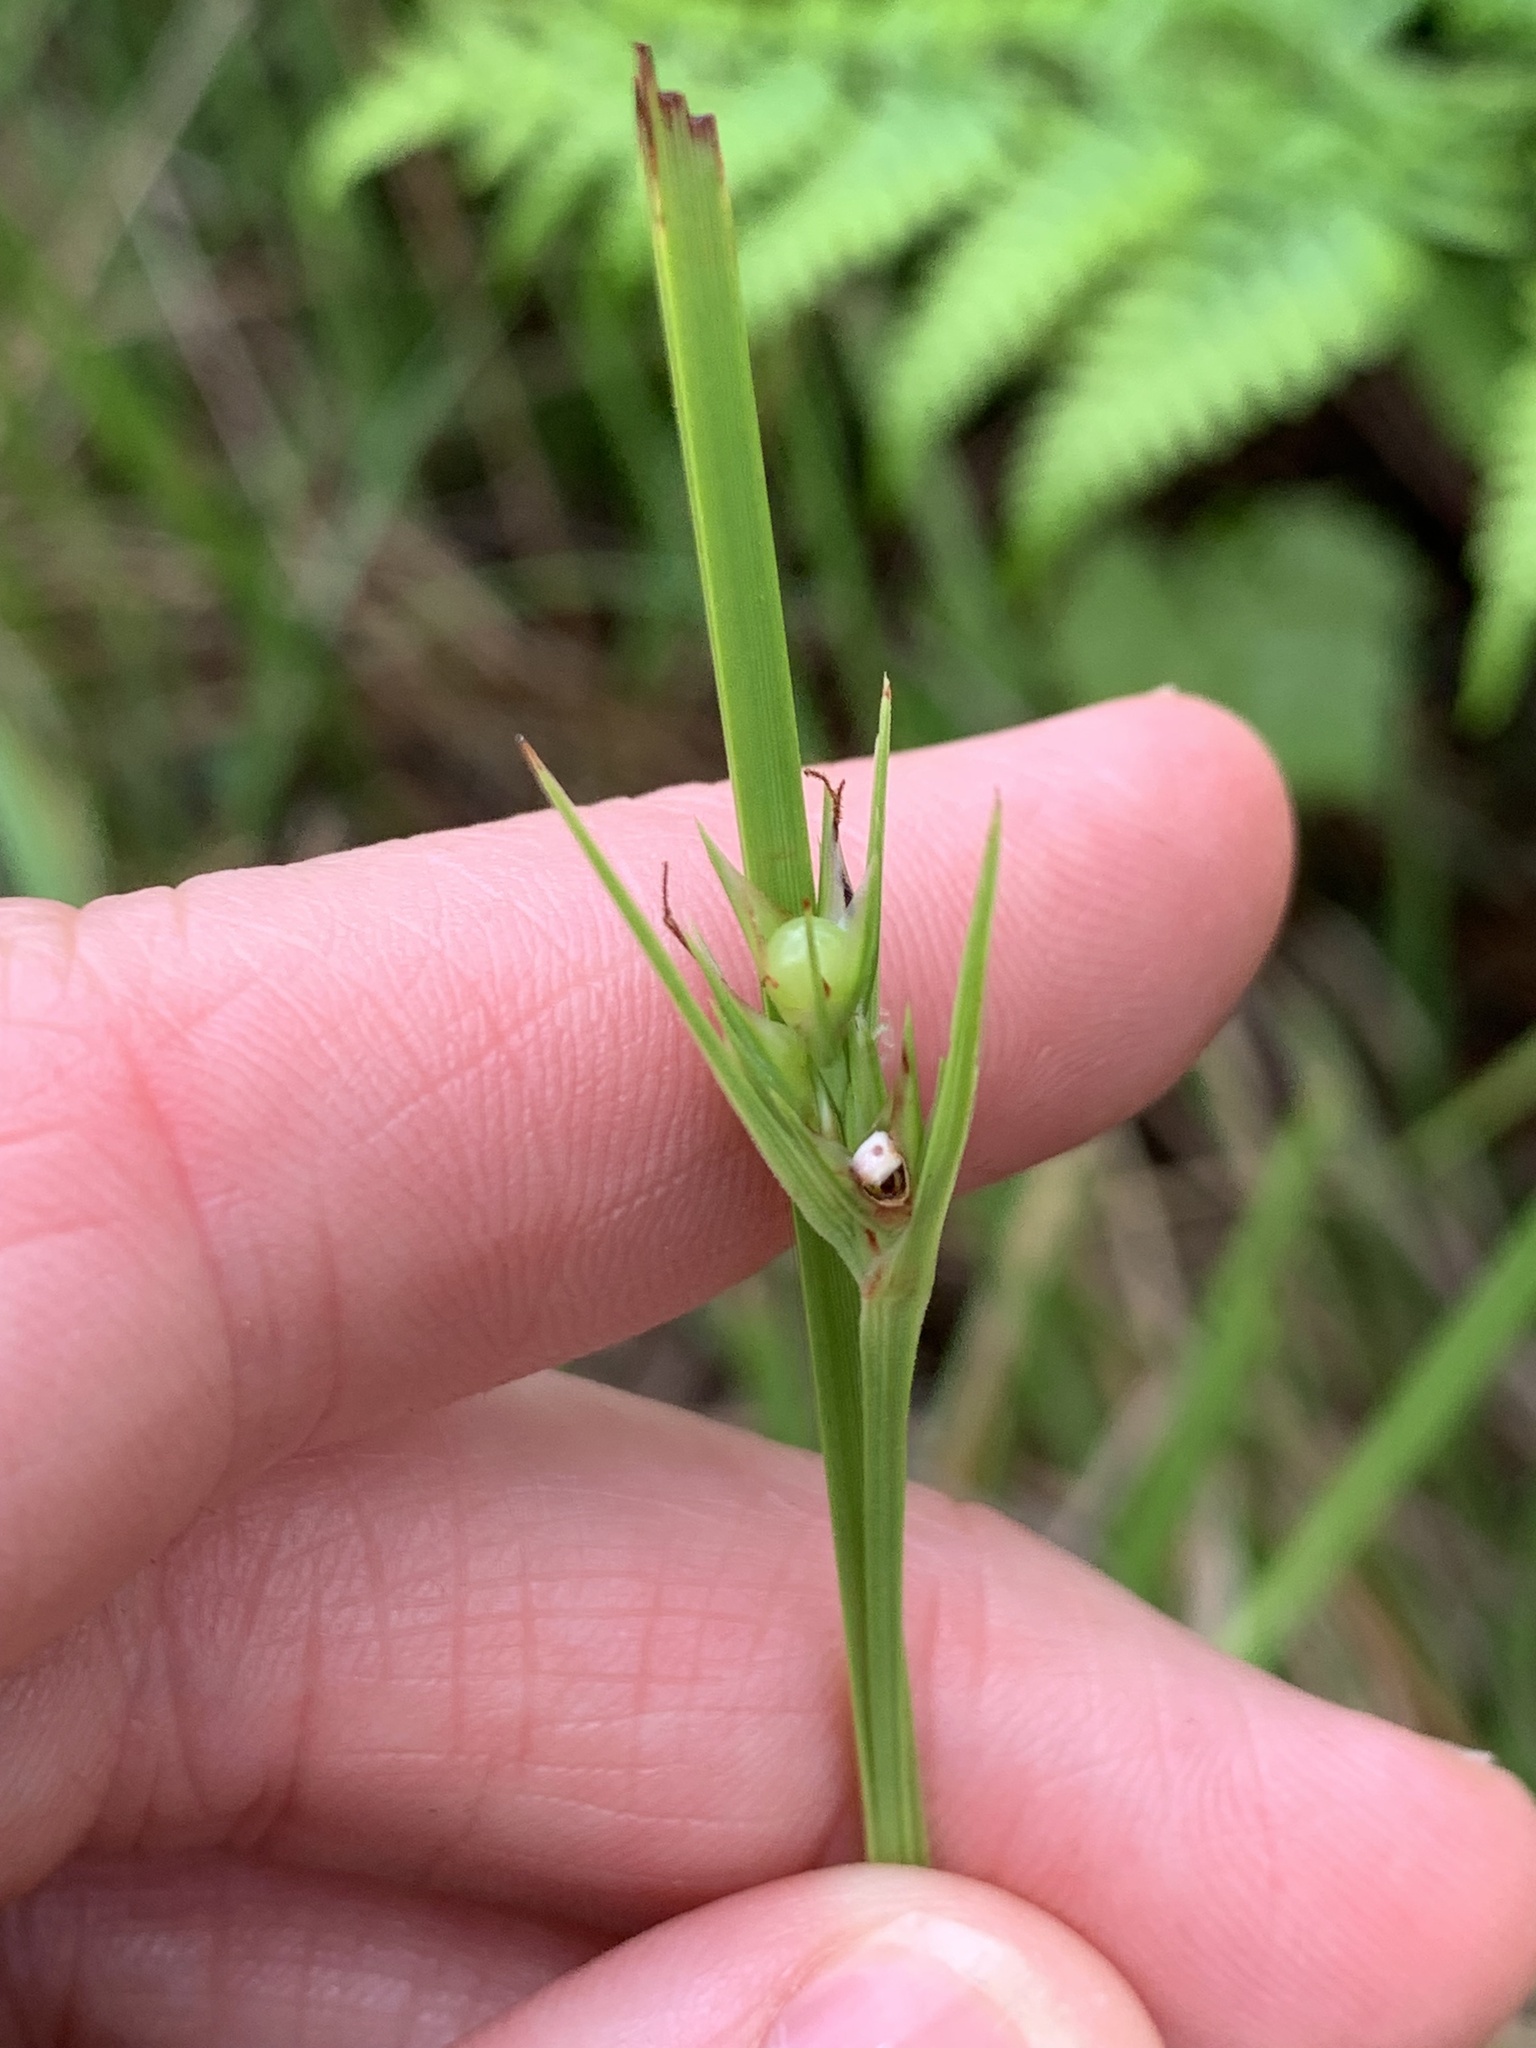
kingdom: Plantae
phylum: Tracheophyta
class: Liliopsida
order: Poales
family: Cyperaceae
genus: Scleria
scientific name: Scleria triglomerata
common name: Whip nutrush
